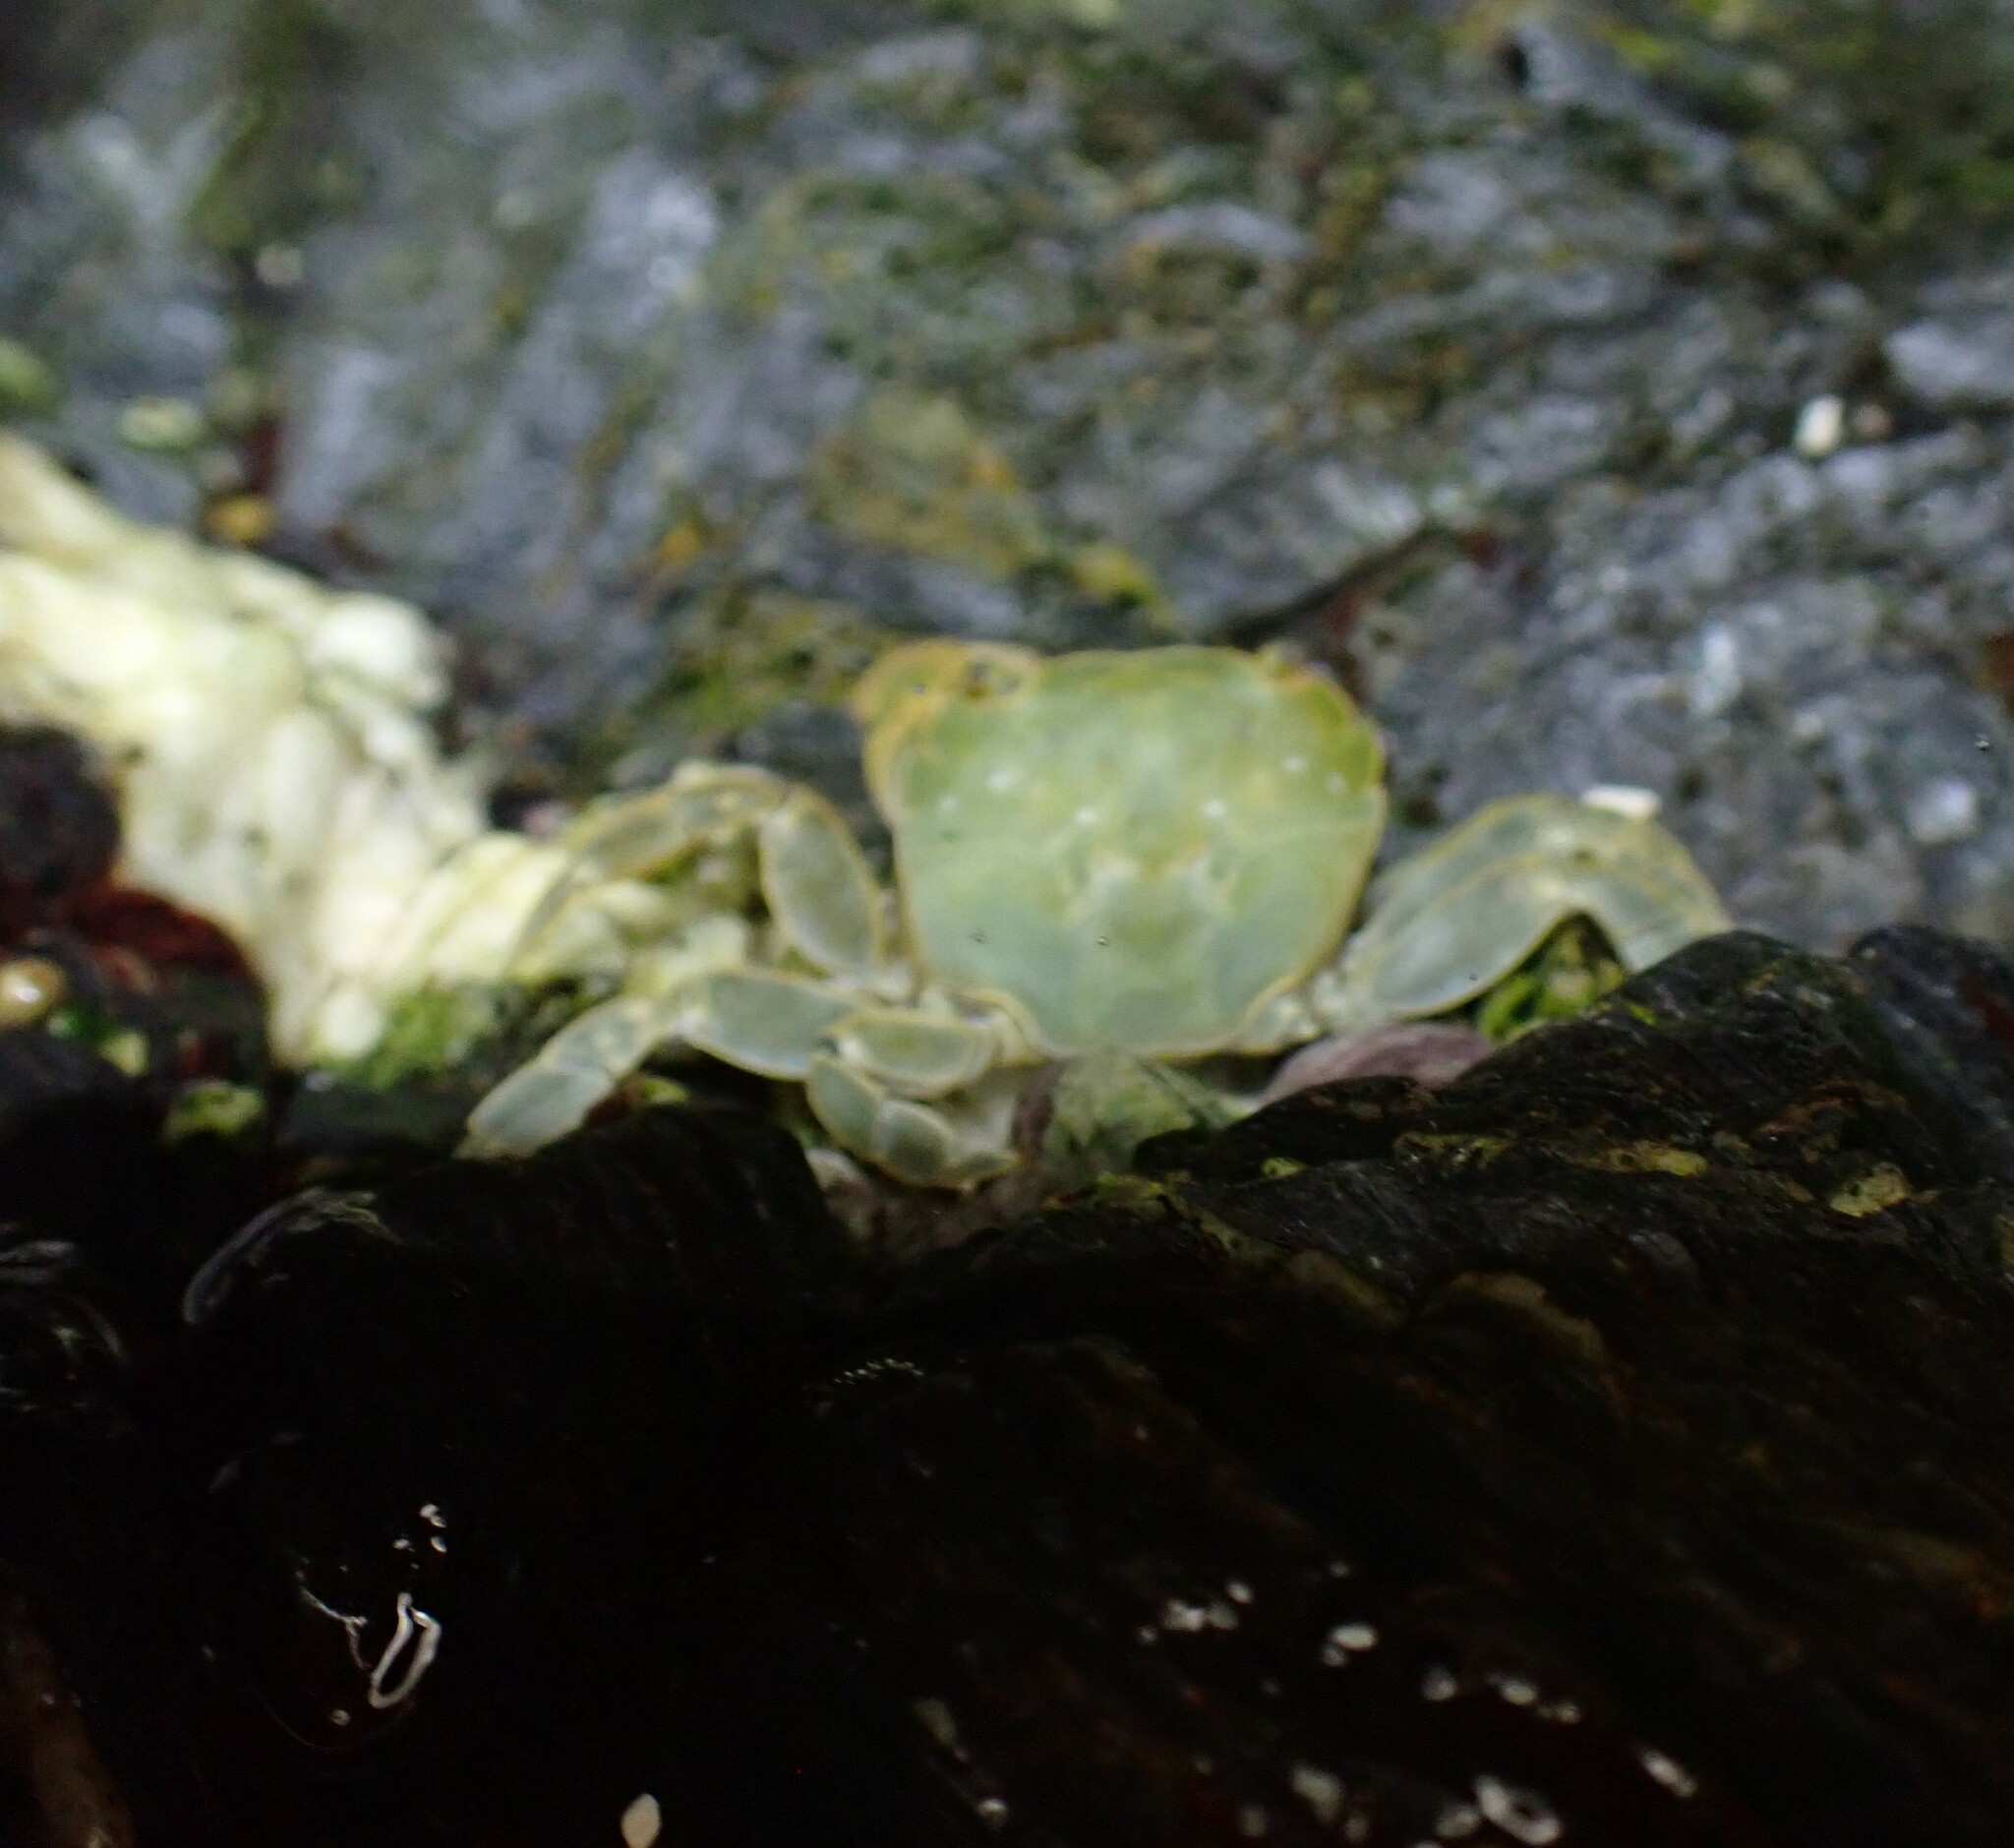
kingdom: Animalia
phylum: Arthropoda
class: Malacostraca
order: Decapoda
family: Varunidae
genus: Hemigrapsus
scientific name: Hemigrapsus nudus
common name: Purple shore crab
